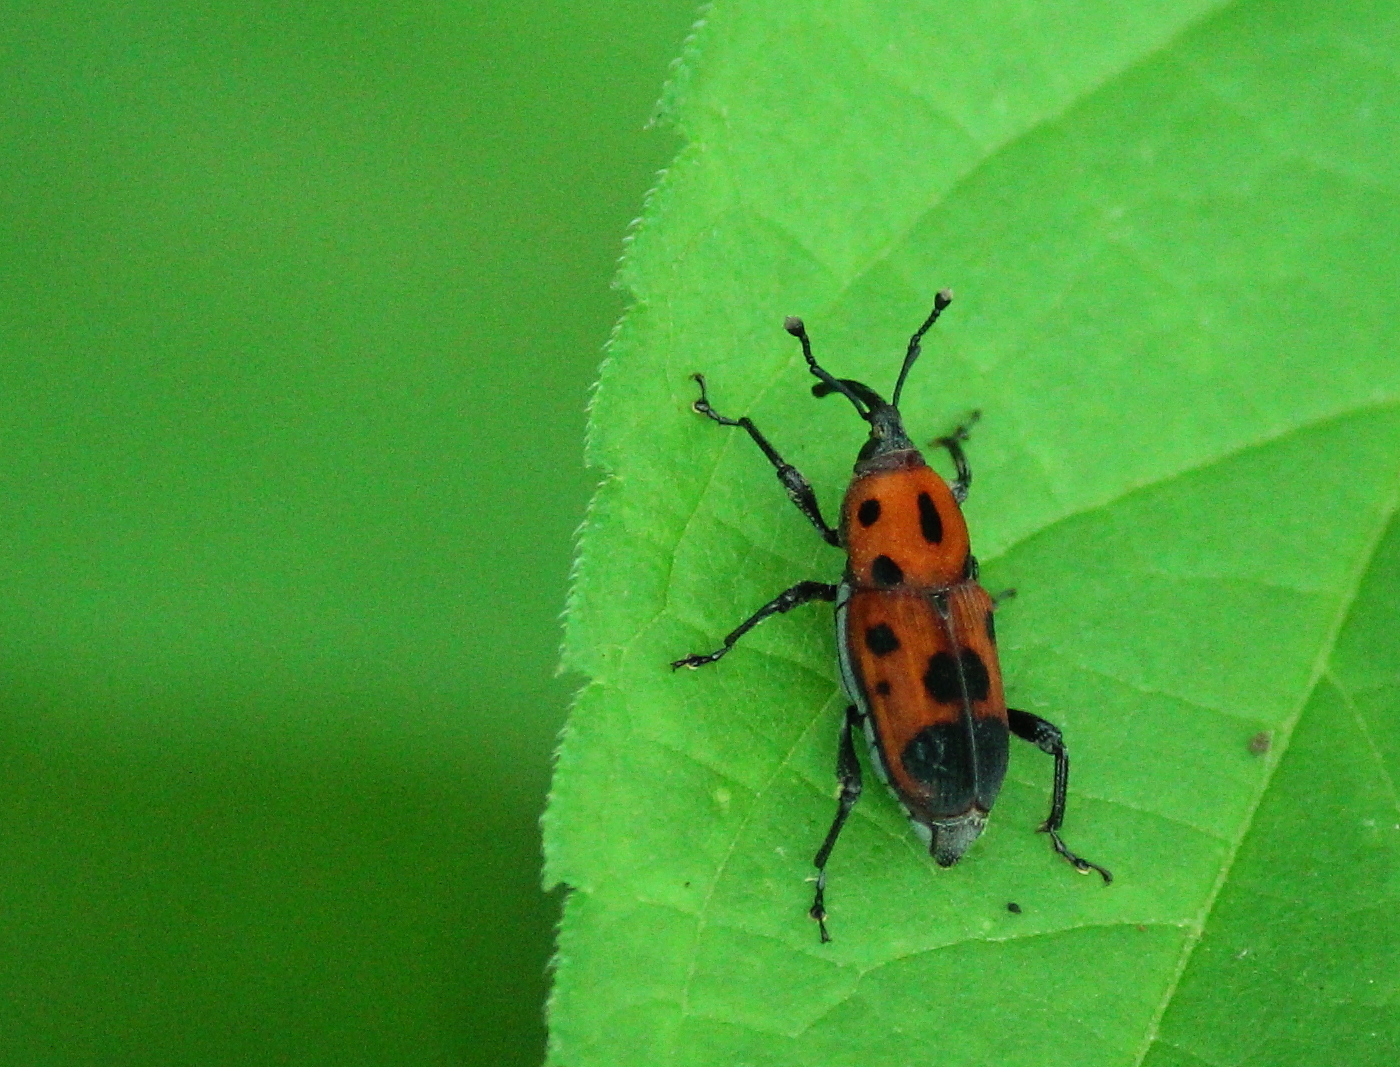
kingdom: Animalia
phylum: Arthropoda
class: Insecta
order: Coleoptera
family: Dryophthoridae
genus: Rhodobaenus
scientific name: Rhodobaenus quinquepunctatus
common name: Cocklebur weevil
